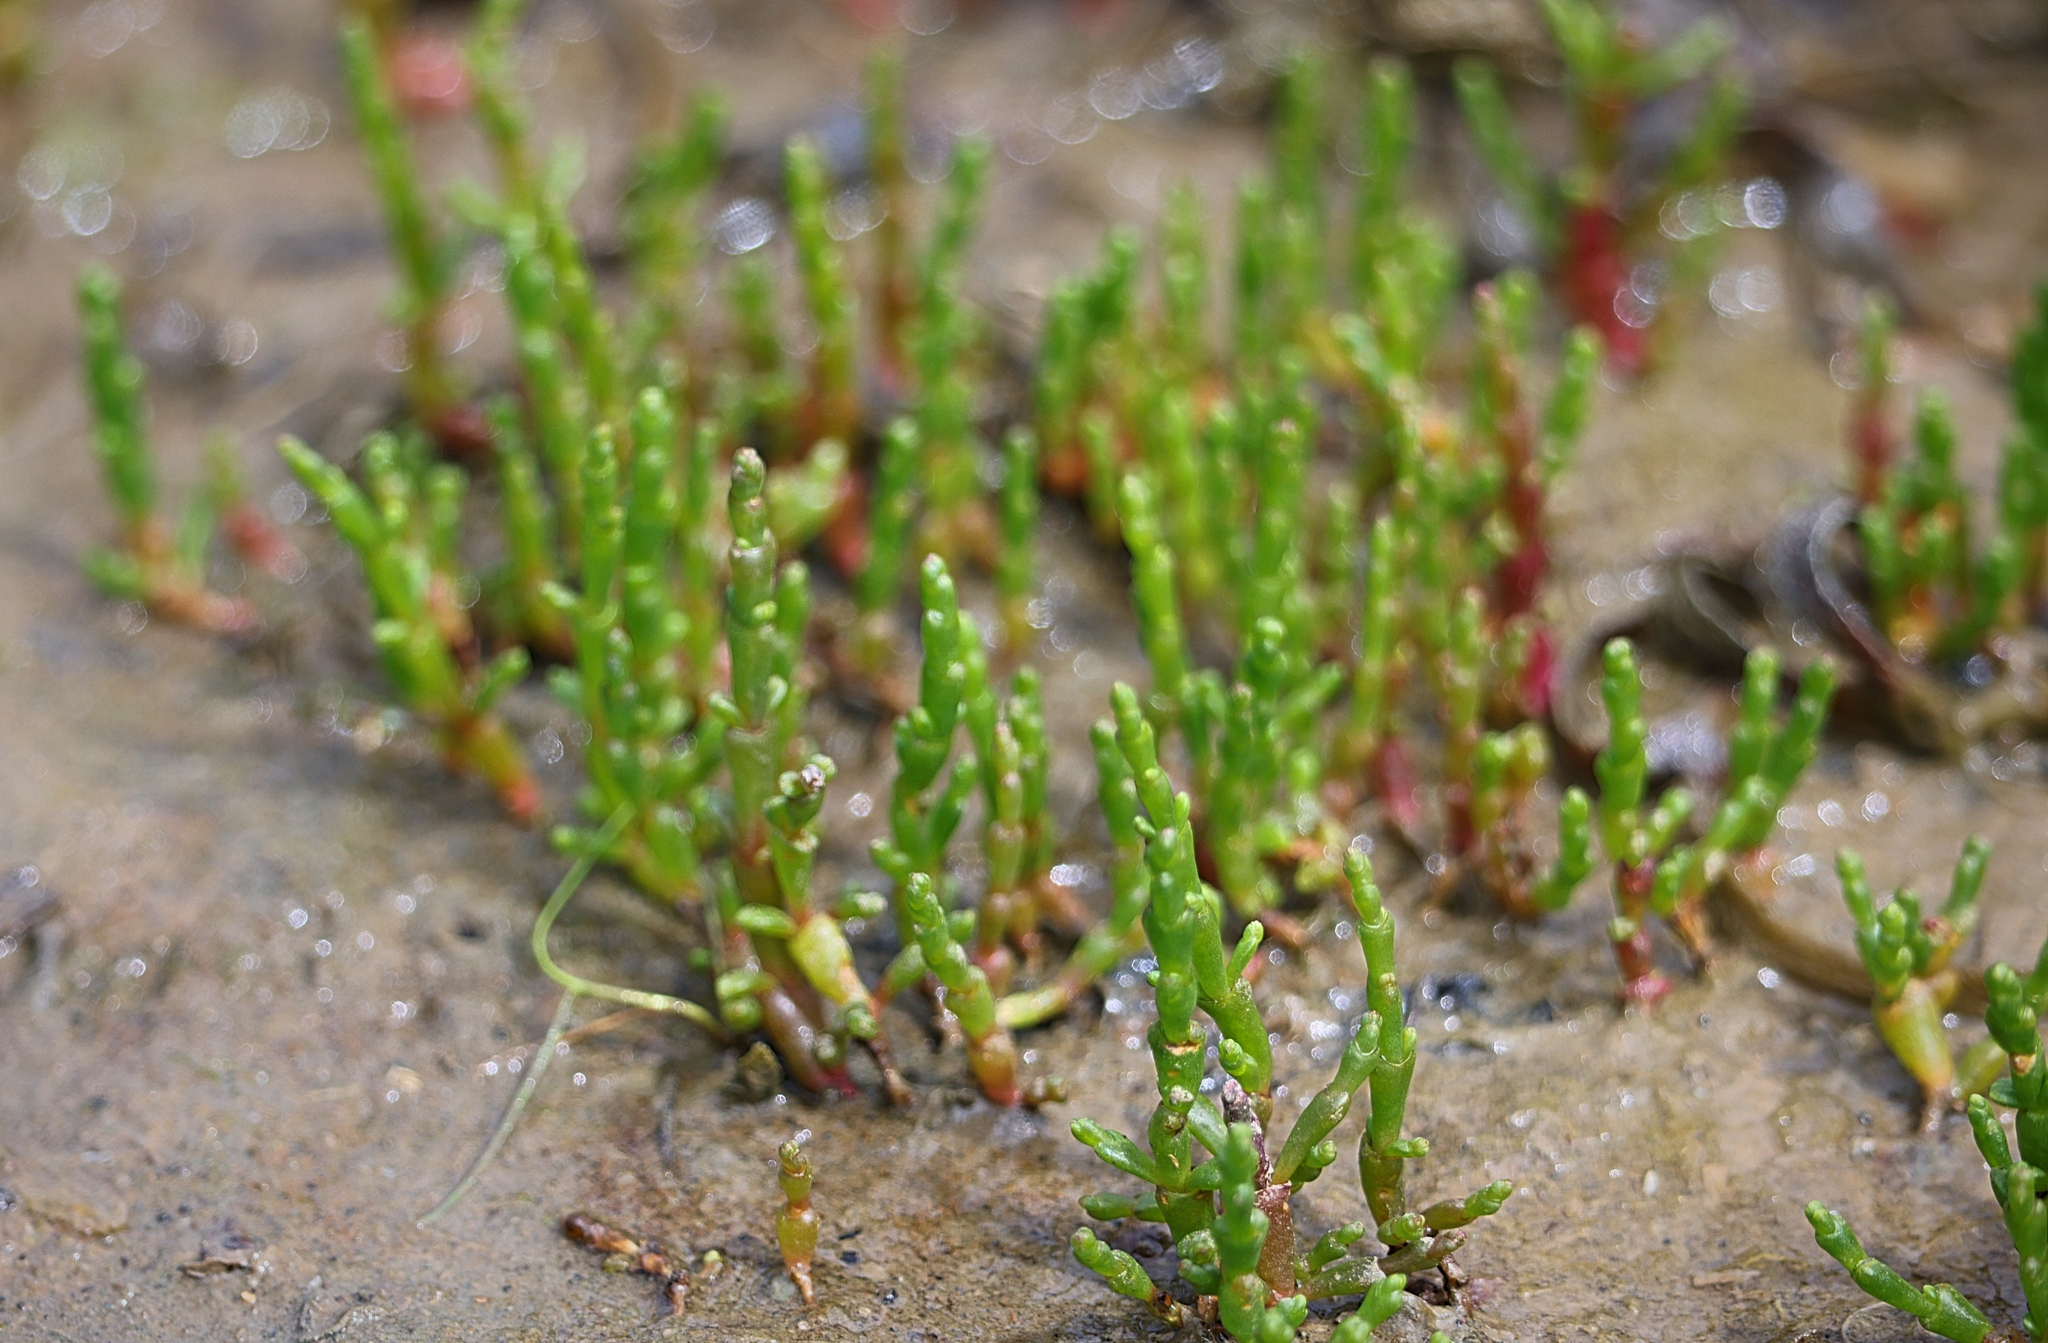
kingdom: Plantae
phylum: Tracheophyta
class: Magnoliopsida
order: Caryophyllales
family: Amaranthaceae
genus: Salicornia
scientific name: Salicornia europaea
